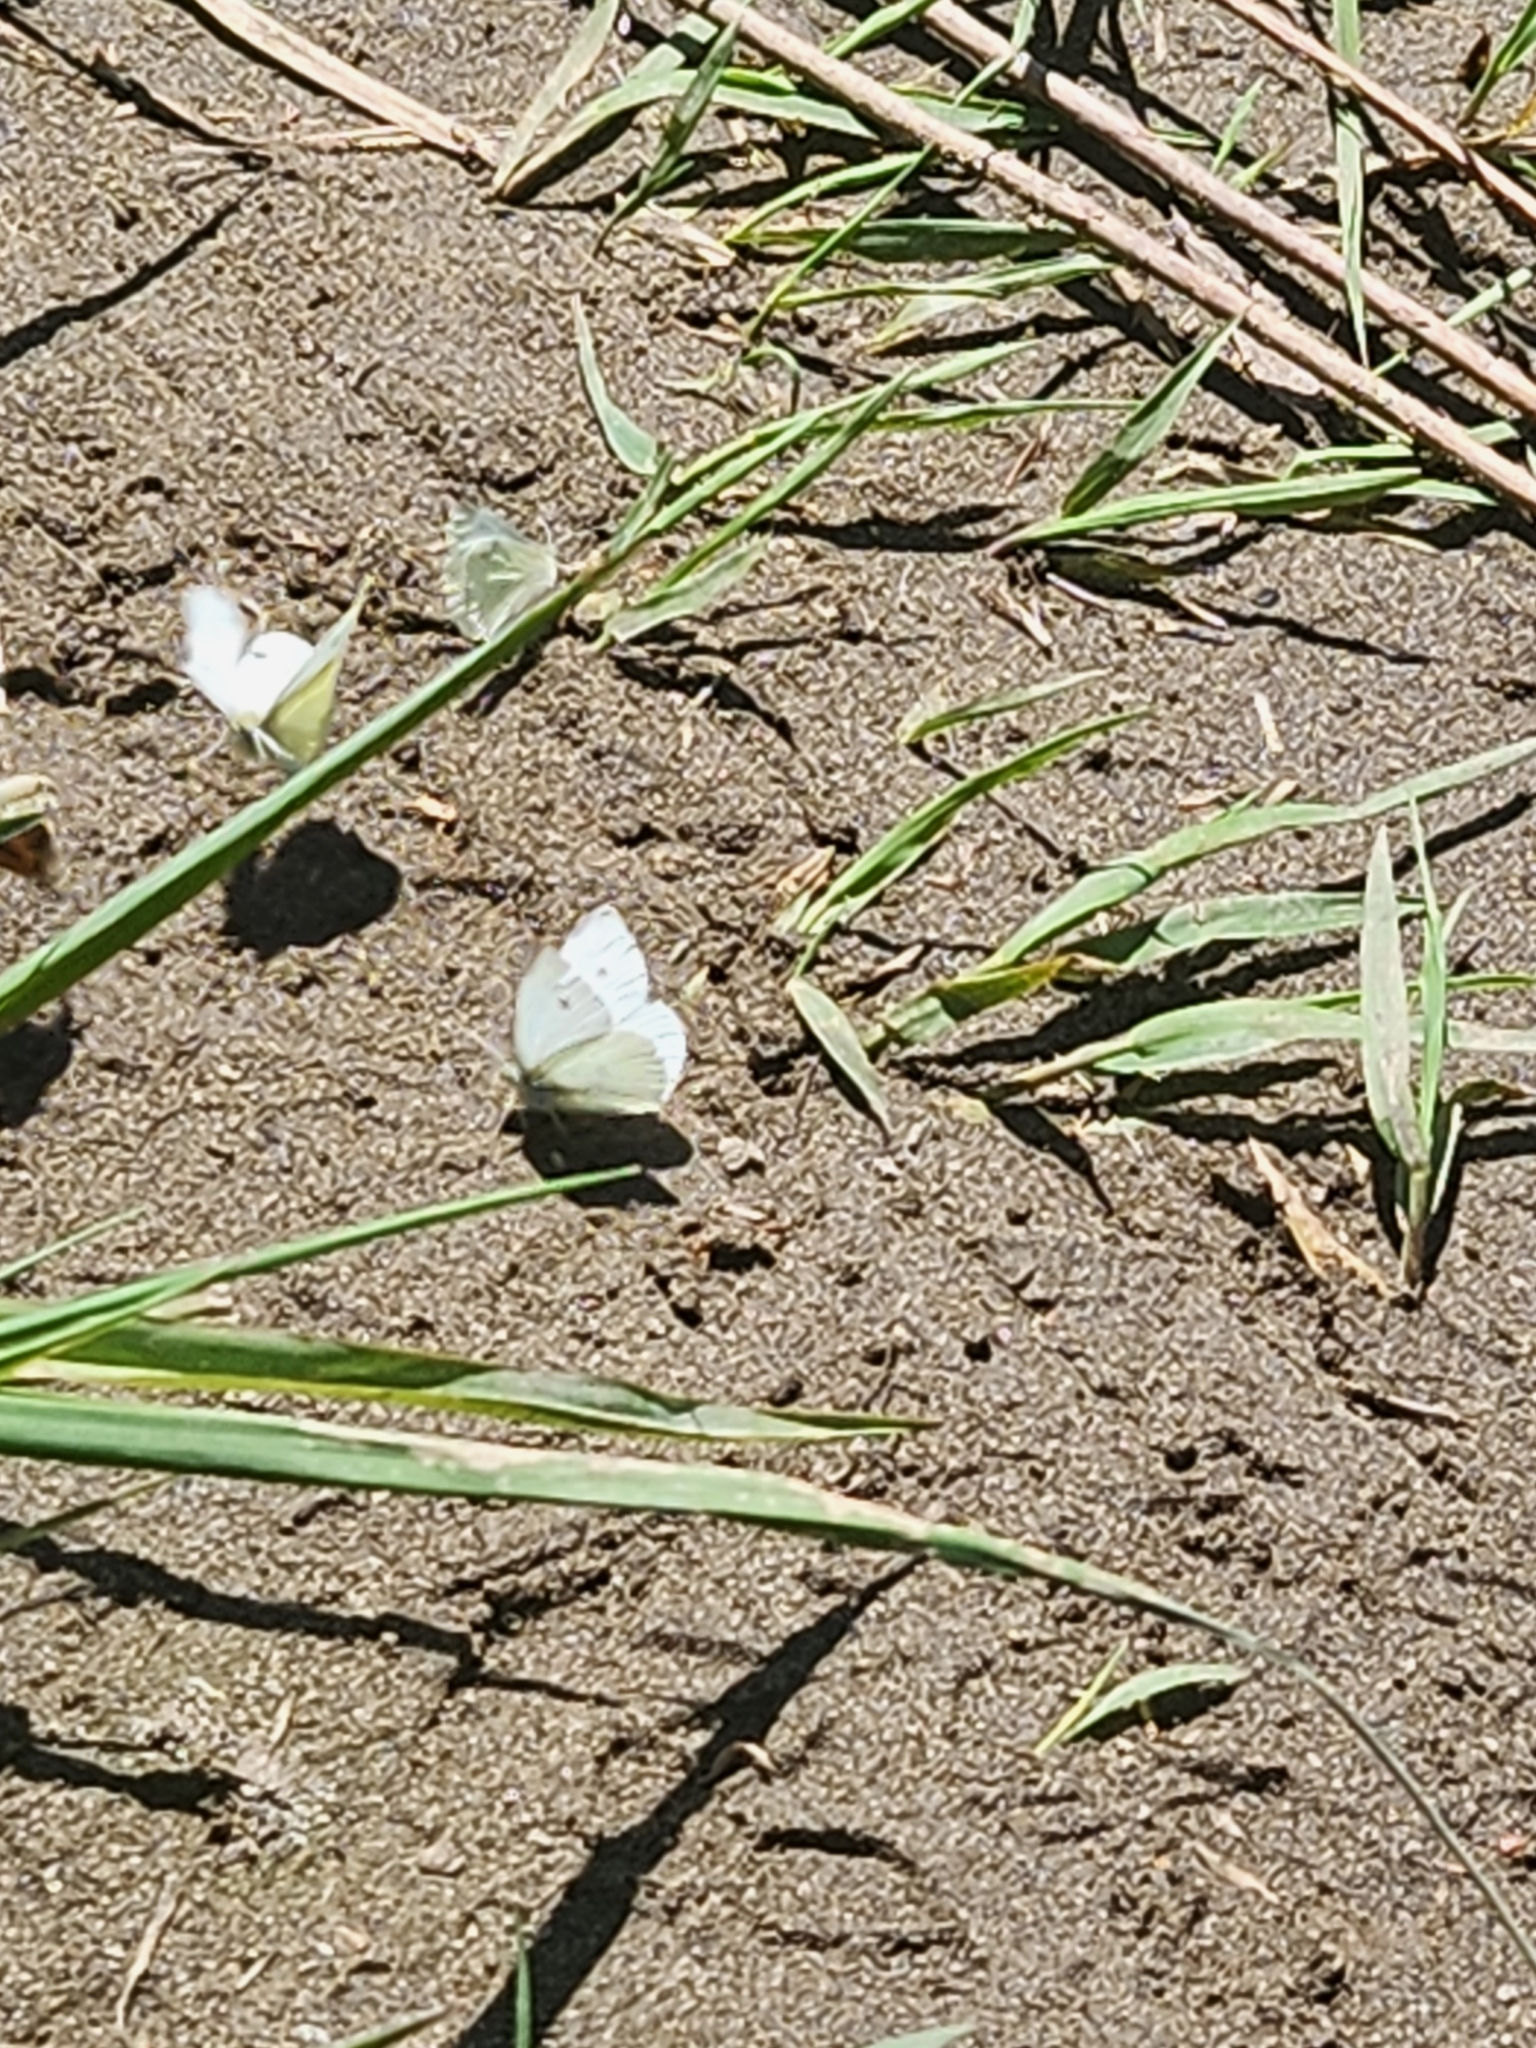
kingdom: Animalia
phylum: Arthropoda
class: Insecta
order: Lepidoptera
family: Pieridae
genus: Pieris
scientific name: Pieris rapae
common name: Small white
